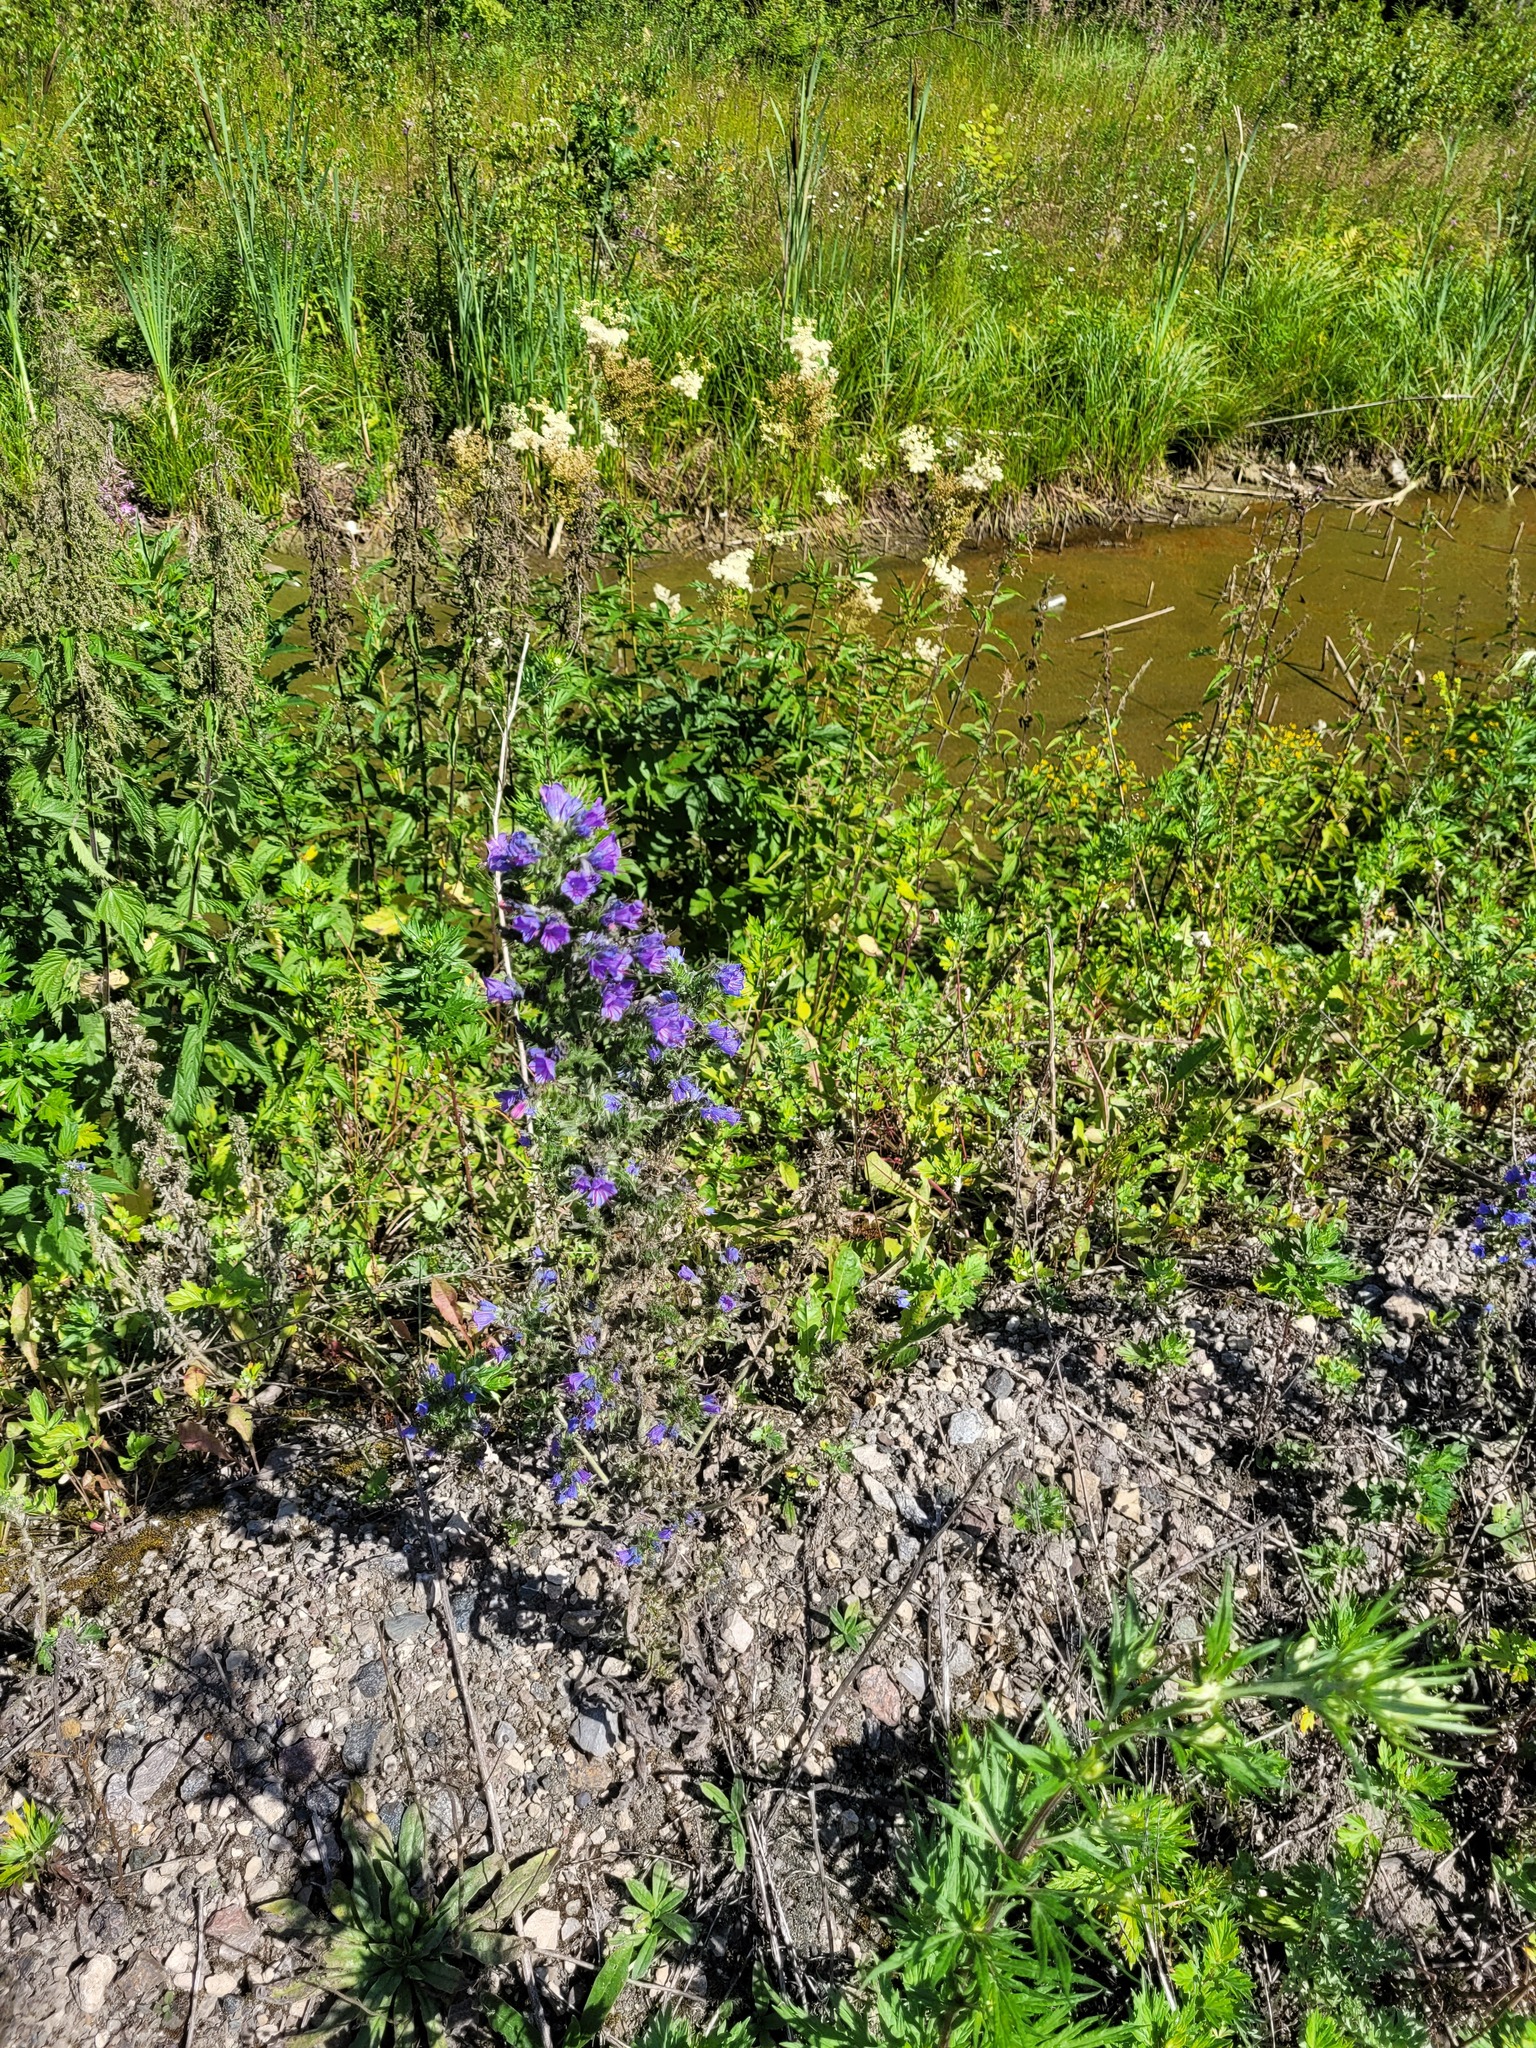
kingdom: Plantae
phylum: Tracheophyta
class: Magnoliopsida
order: Boraginales
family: Boraginaceae
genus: Echium
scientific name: Echium vulgare
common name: Common viper's bugloss
